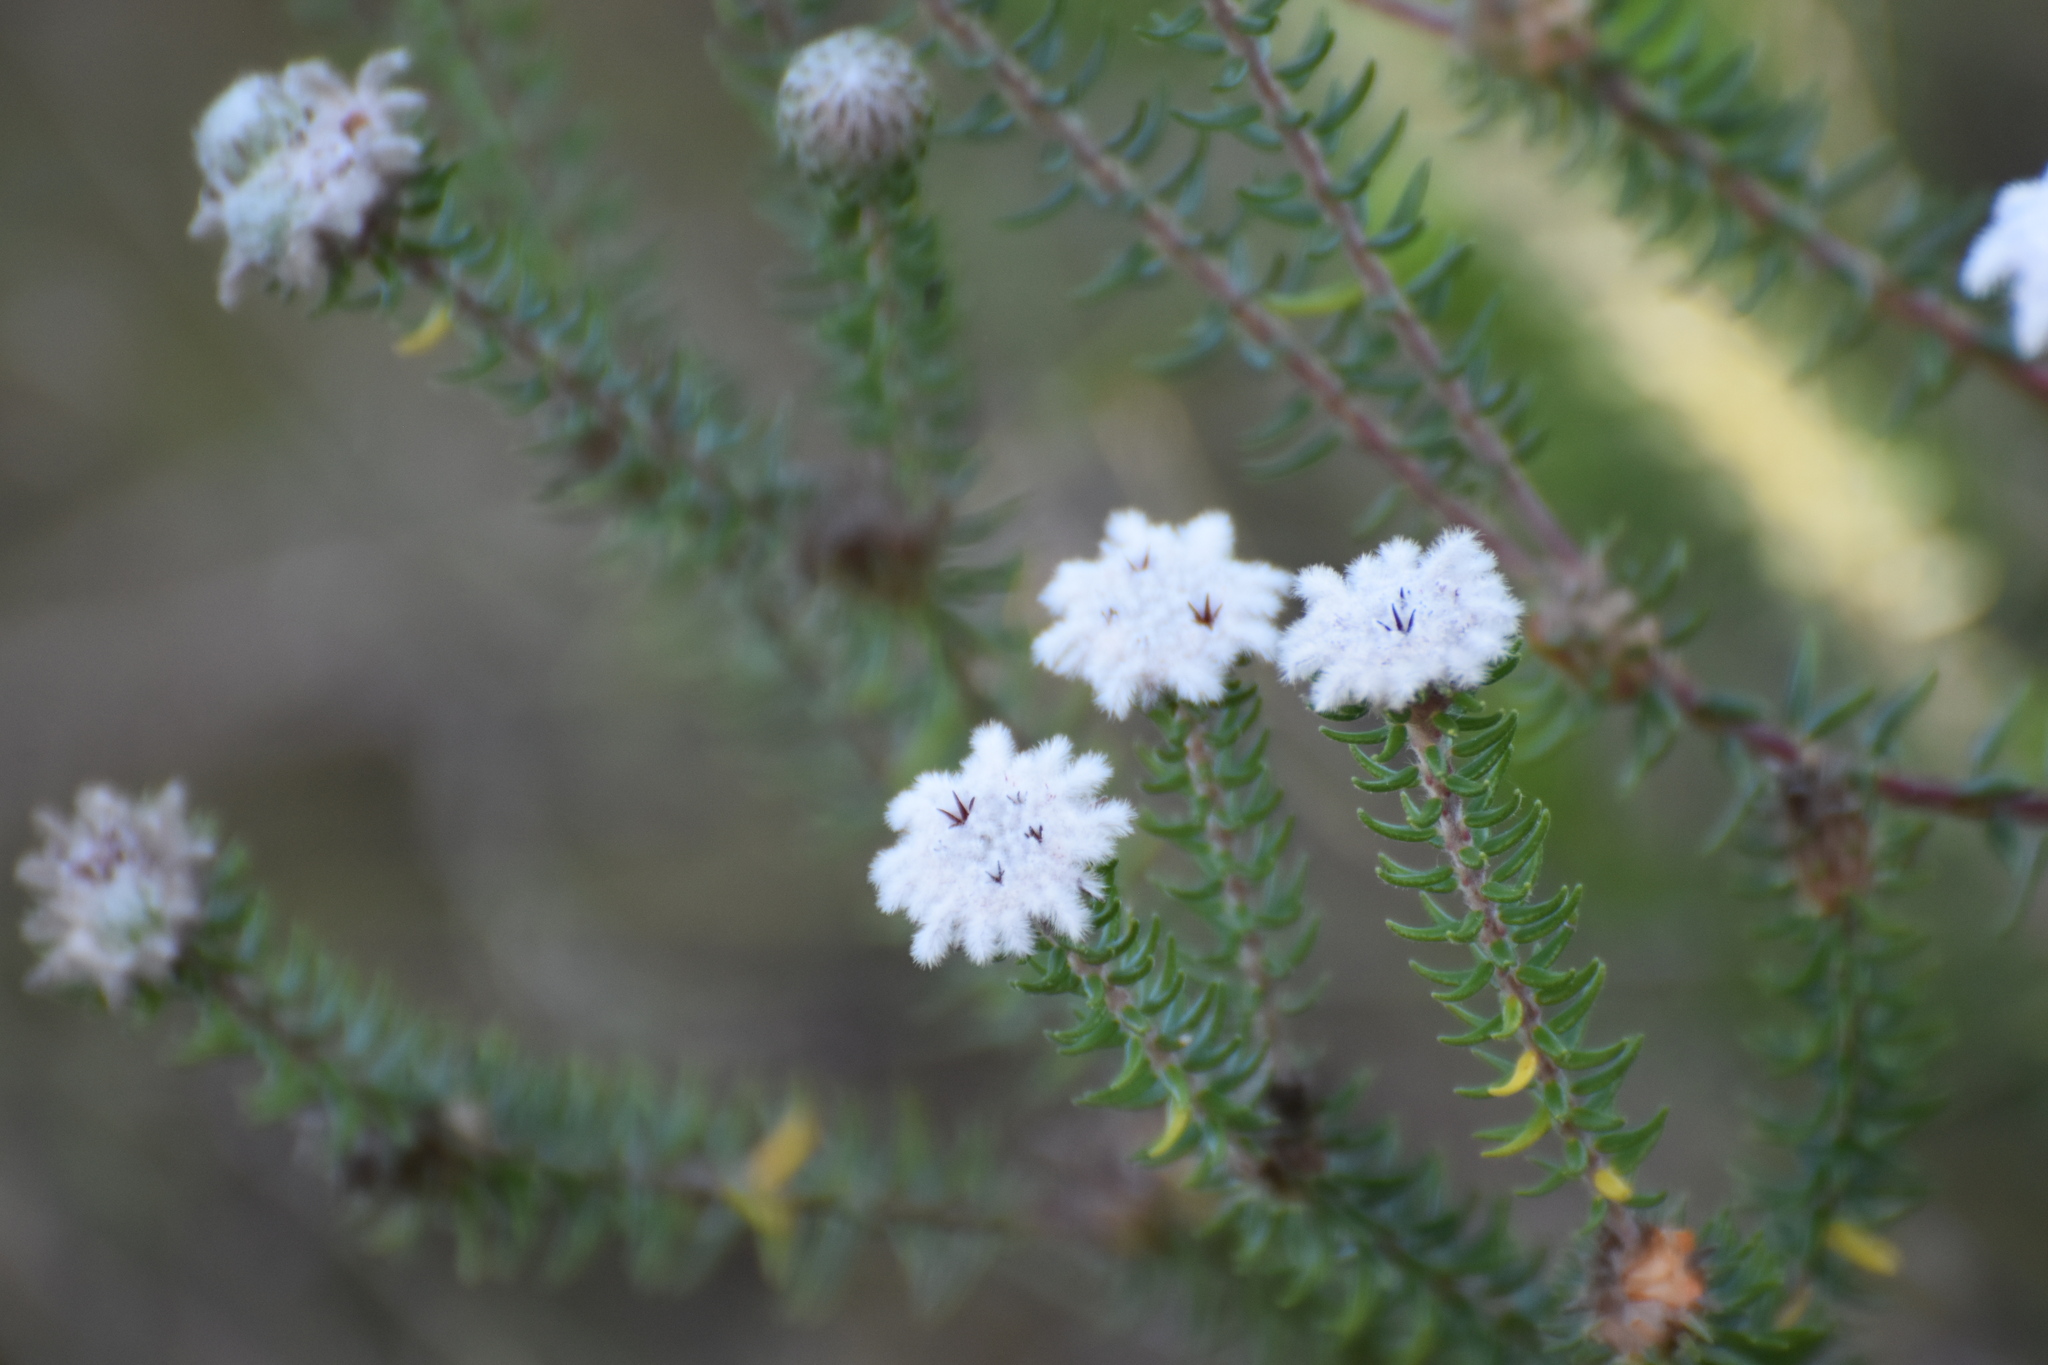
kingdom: Plantae
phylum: Tracheophyta
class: Magnoliopsida
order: Rosales
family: Rhamnaceae
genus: Phylica
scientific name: Phylica curvifolia
